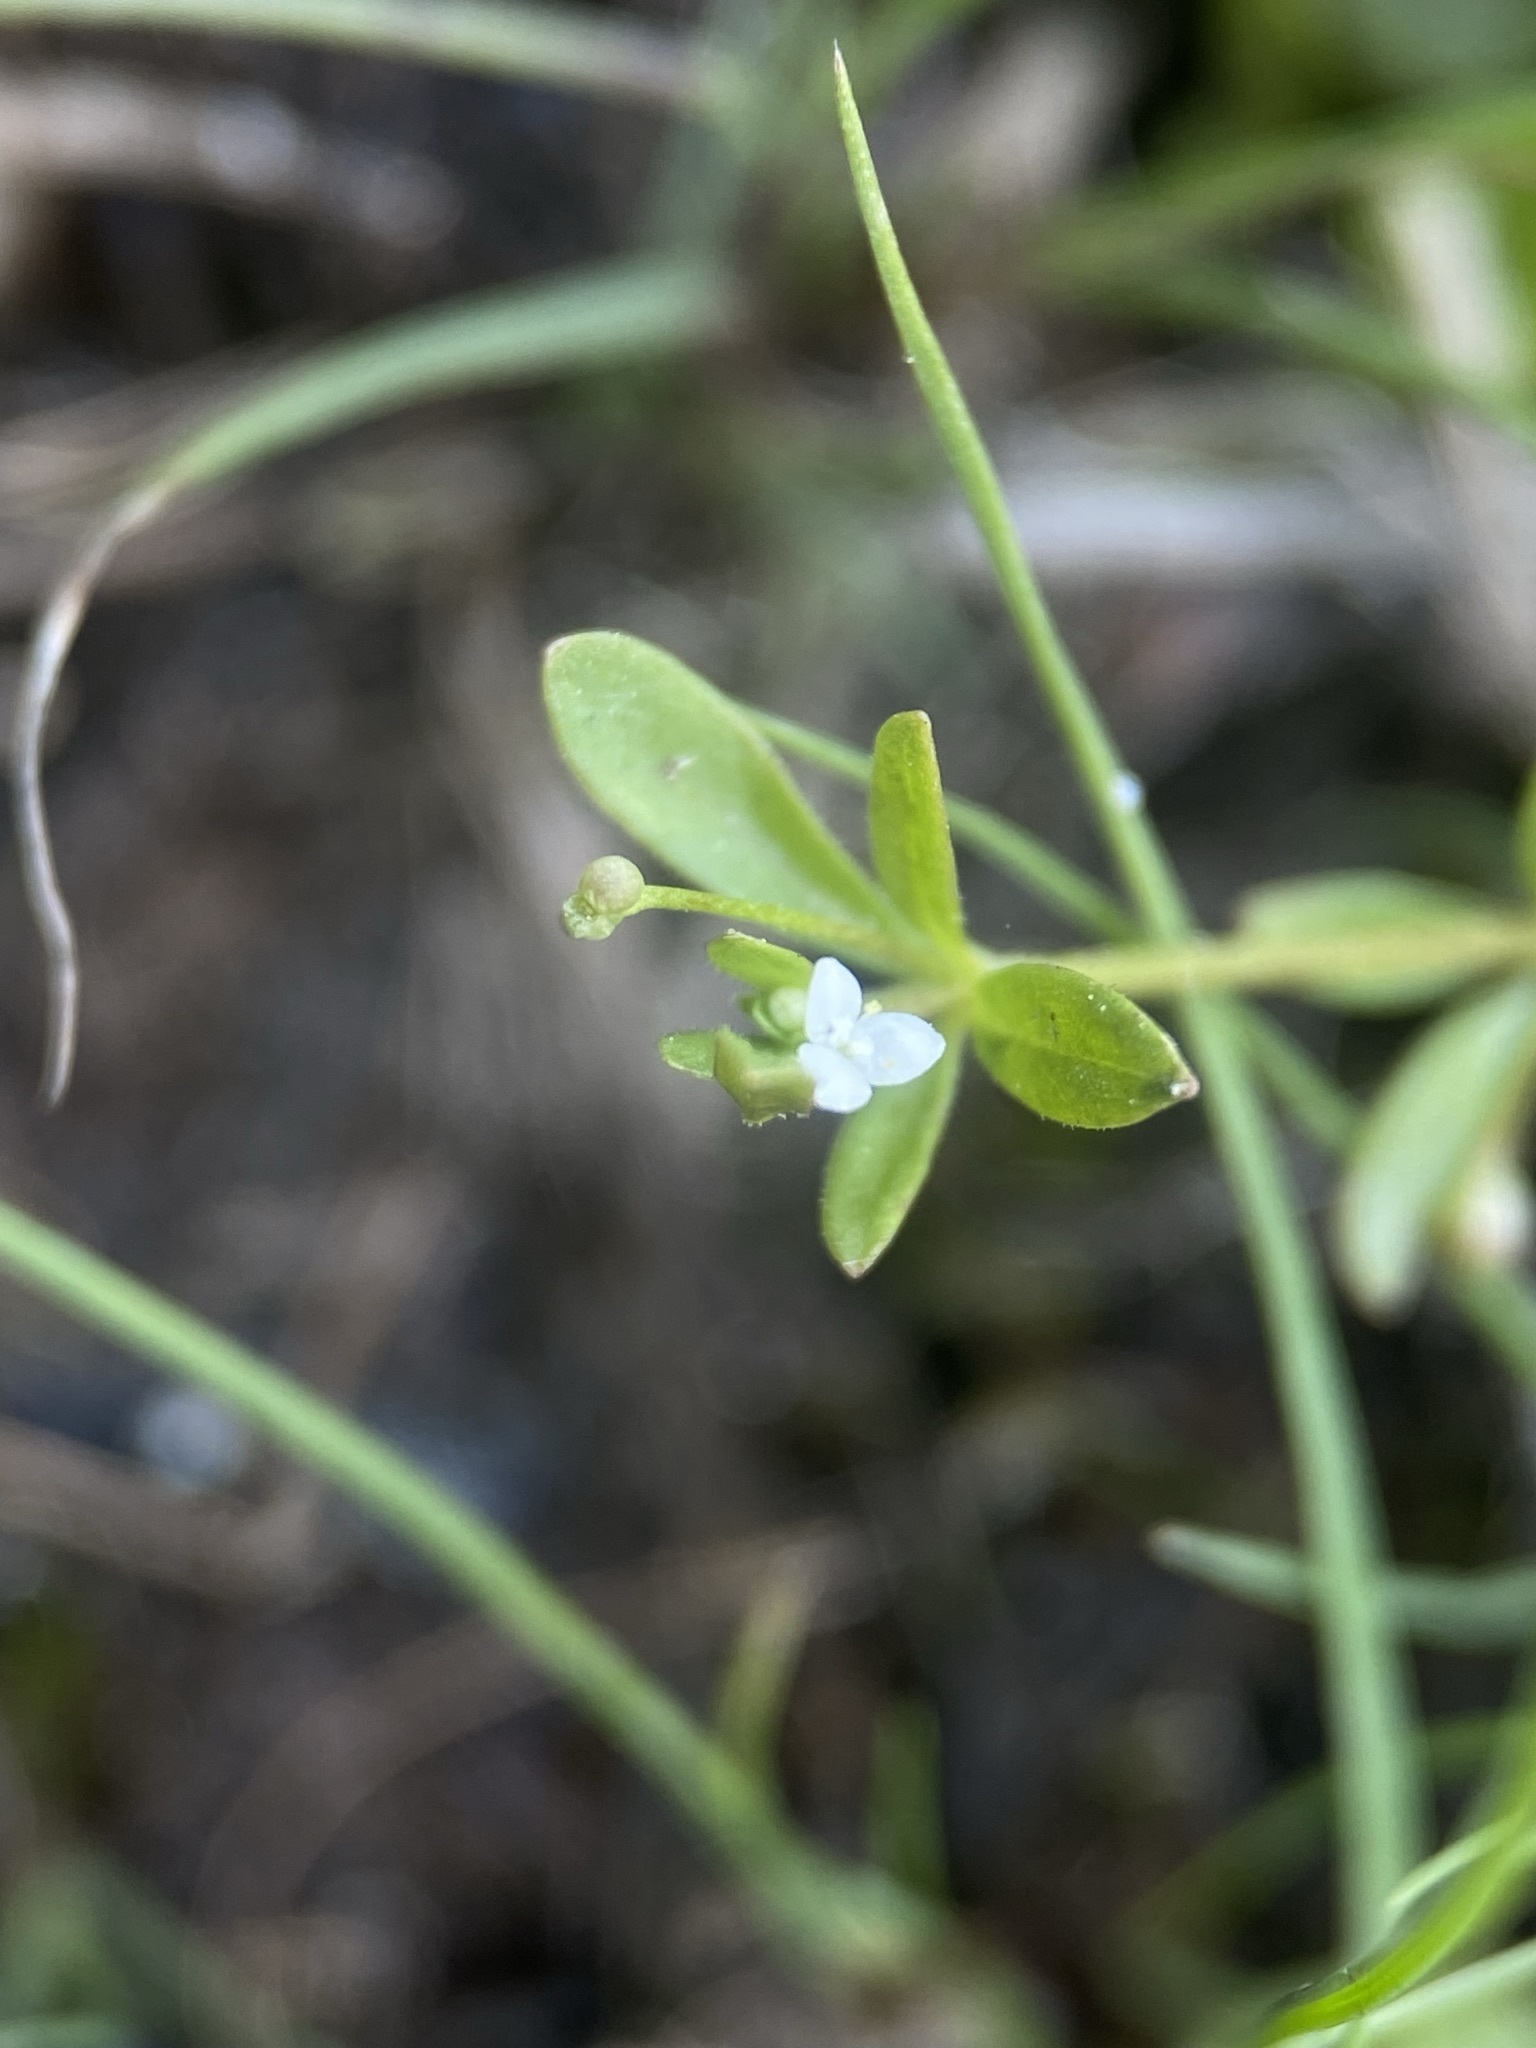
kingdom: Plantae
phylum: Tracheophyta
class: Magnoliopsida
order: Gentianales
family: Rubiaceae
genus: Galium
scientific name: Galium trifidum
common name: Small bedstraw
